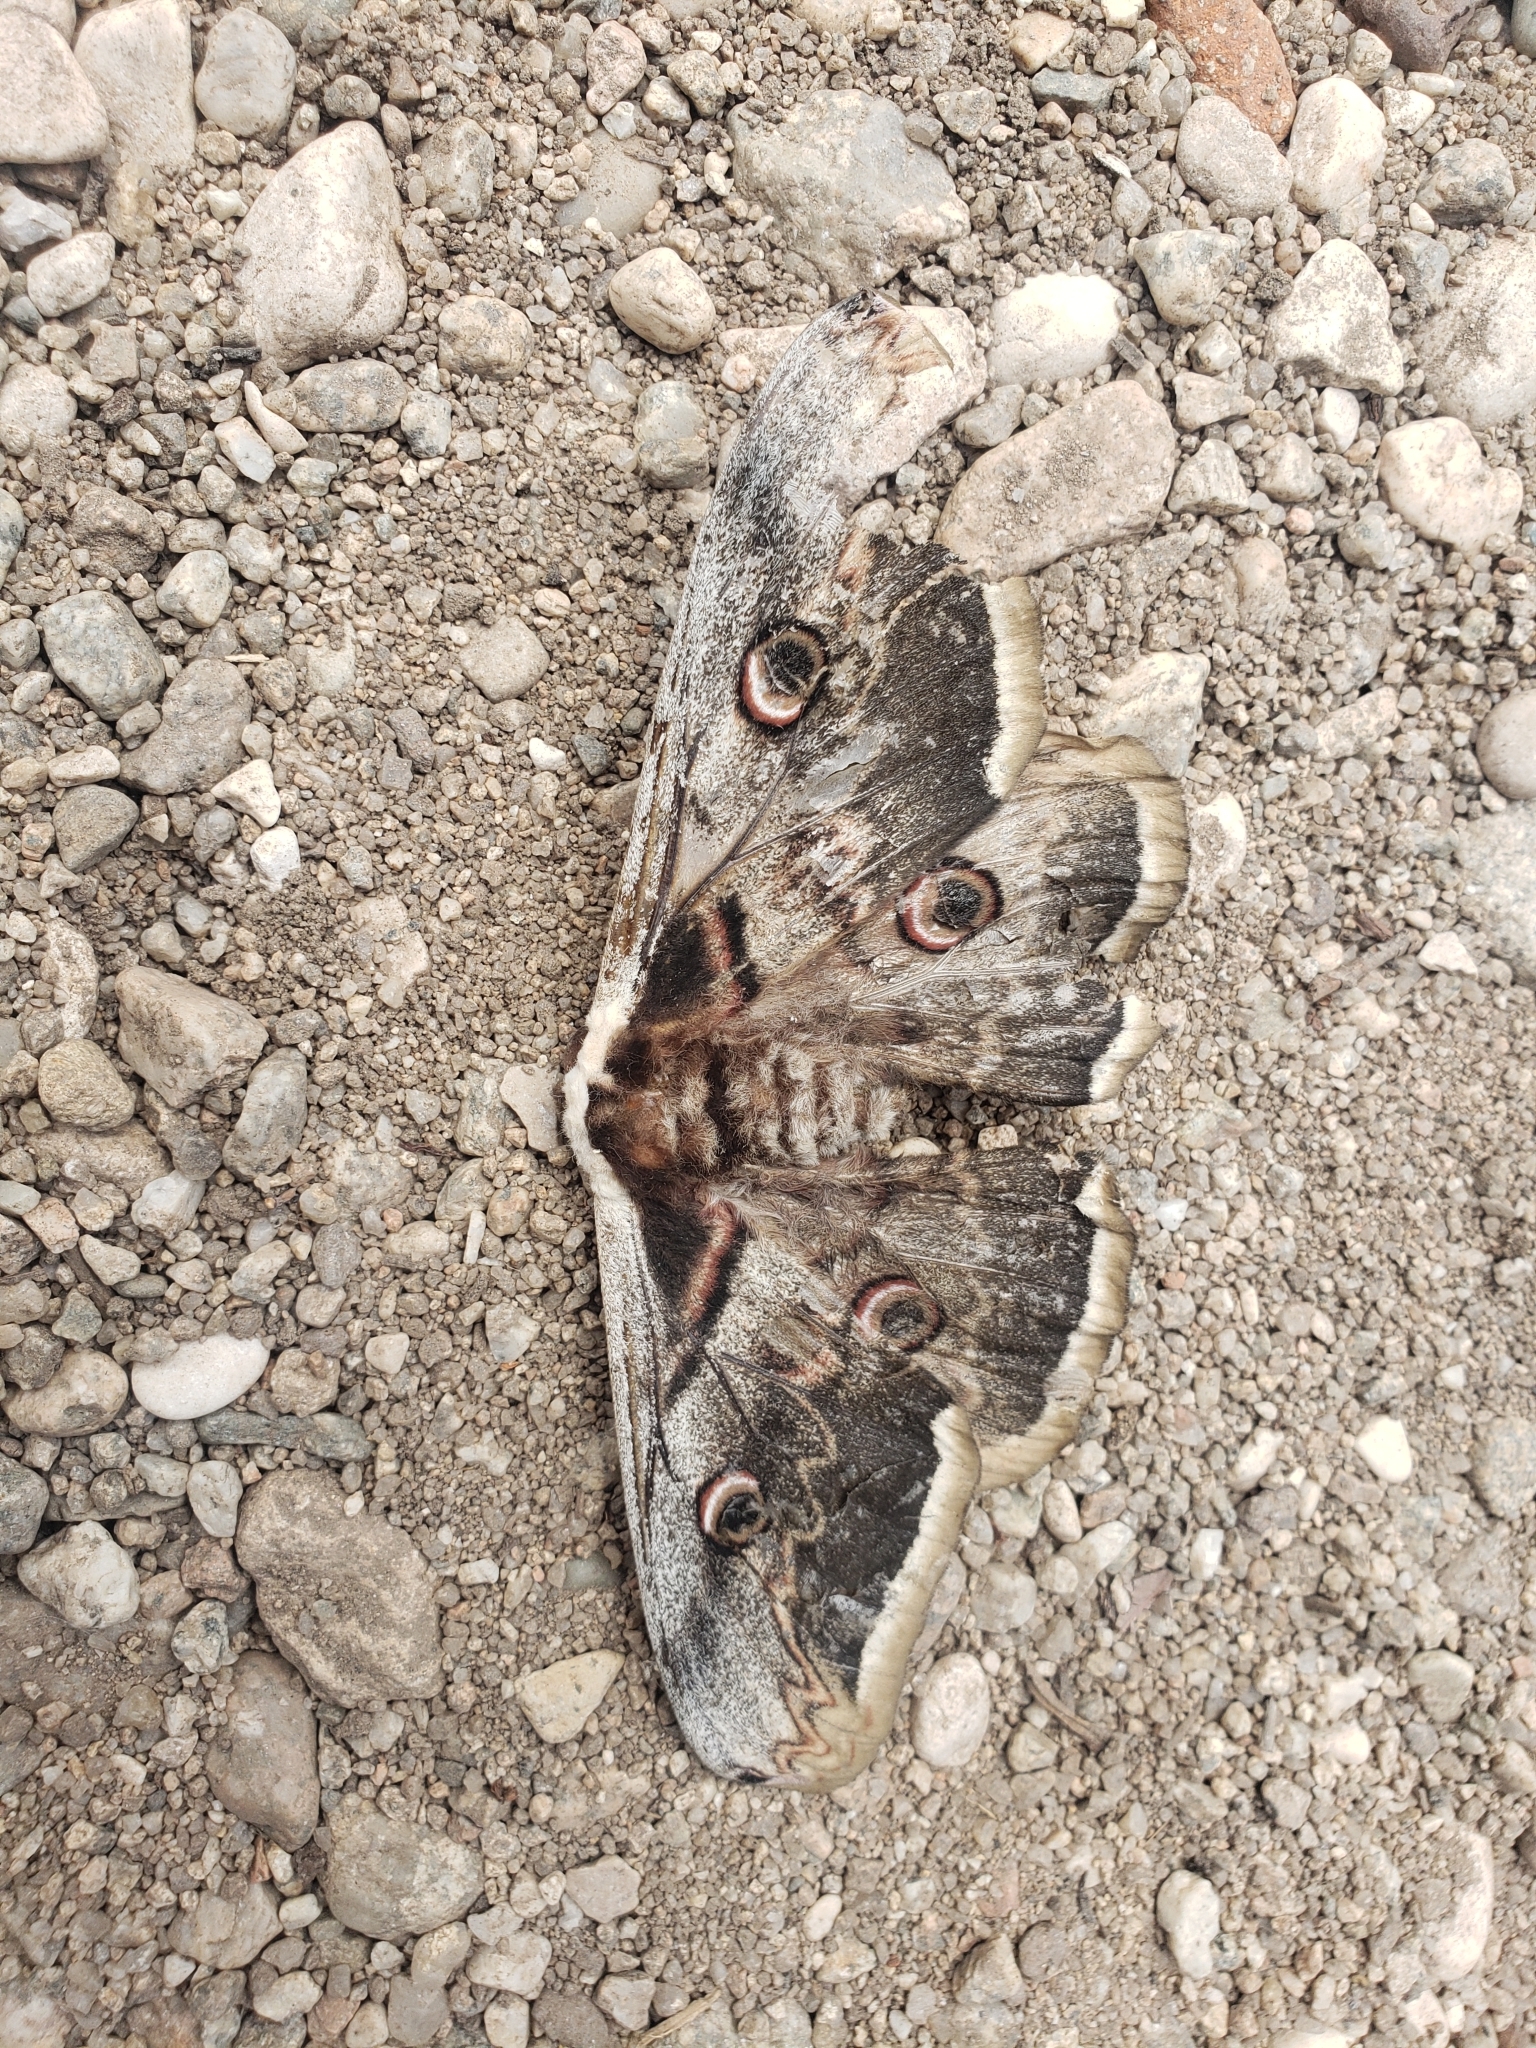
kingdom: Animalia
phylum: Arthropoda
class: Insecta
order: Lepidoptera
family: Saturniidae
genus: Saturnia
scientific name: Saturnia pyri
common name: Great peacock moth
